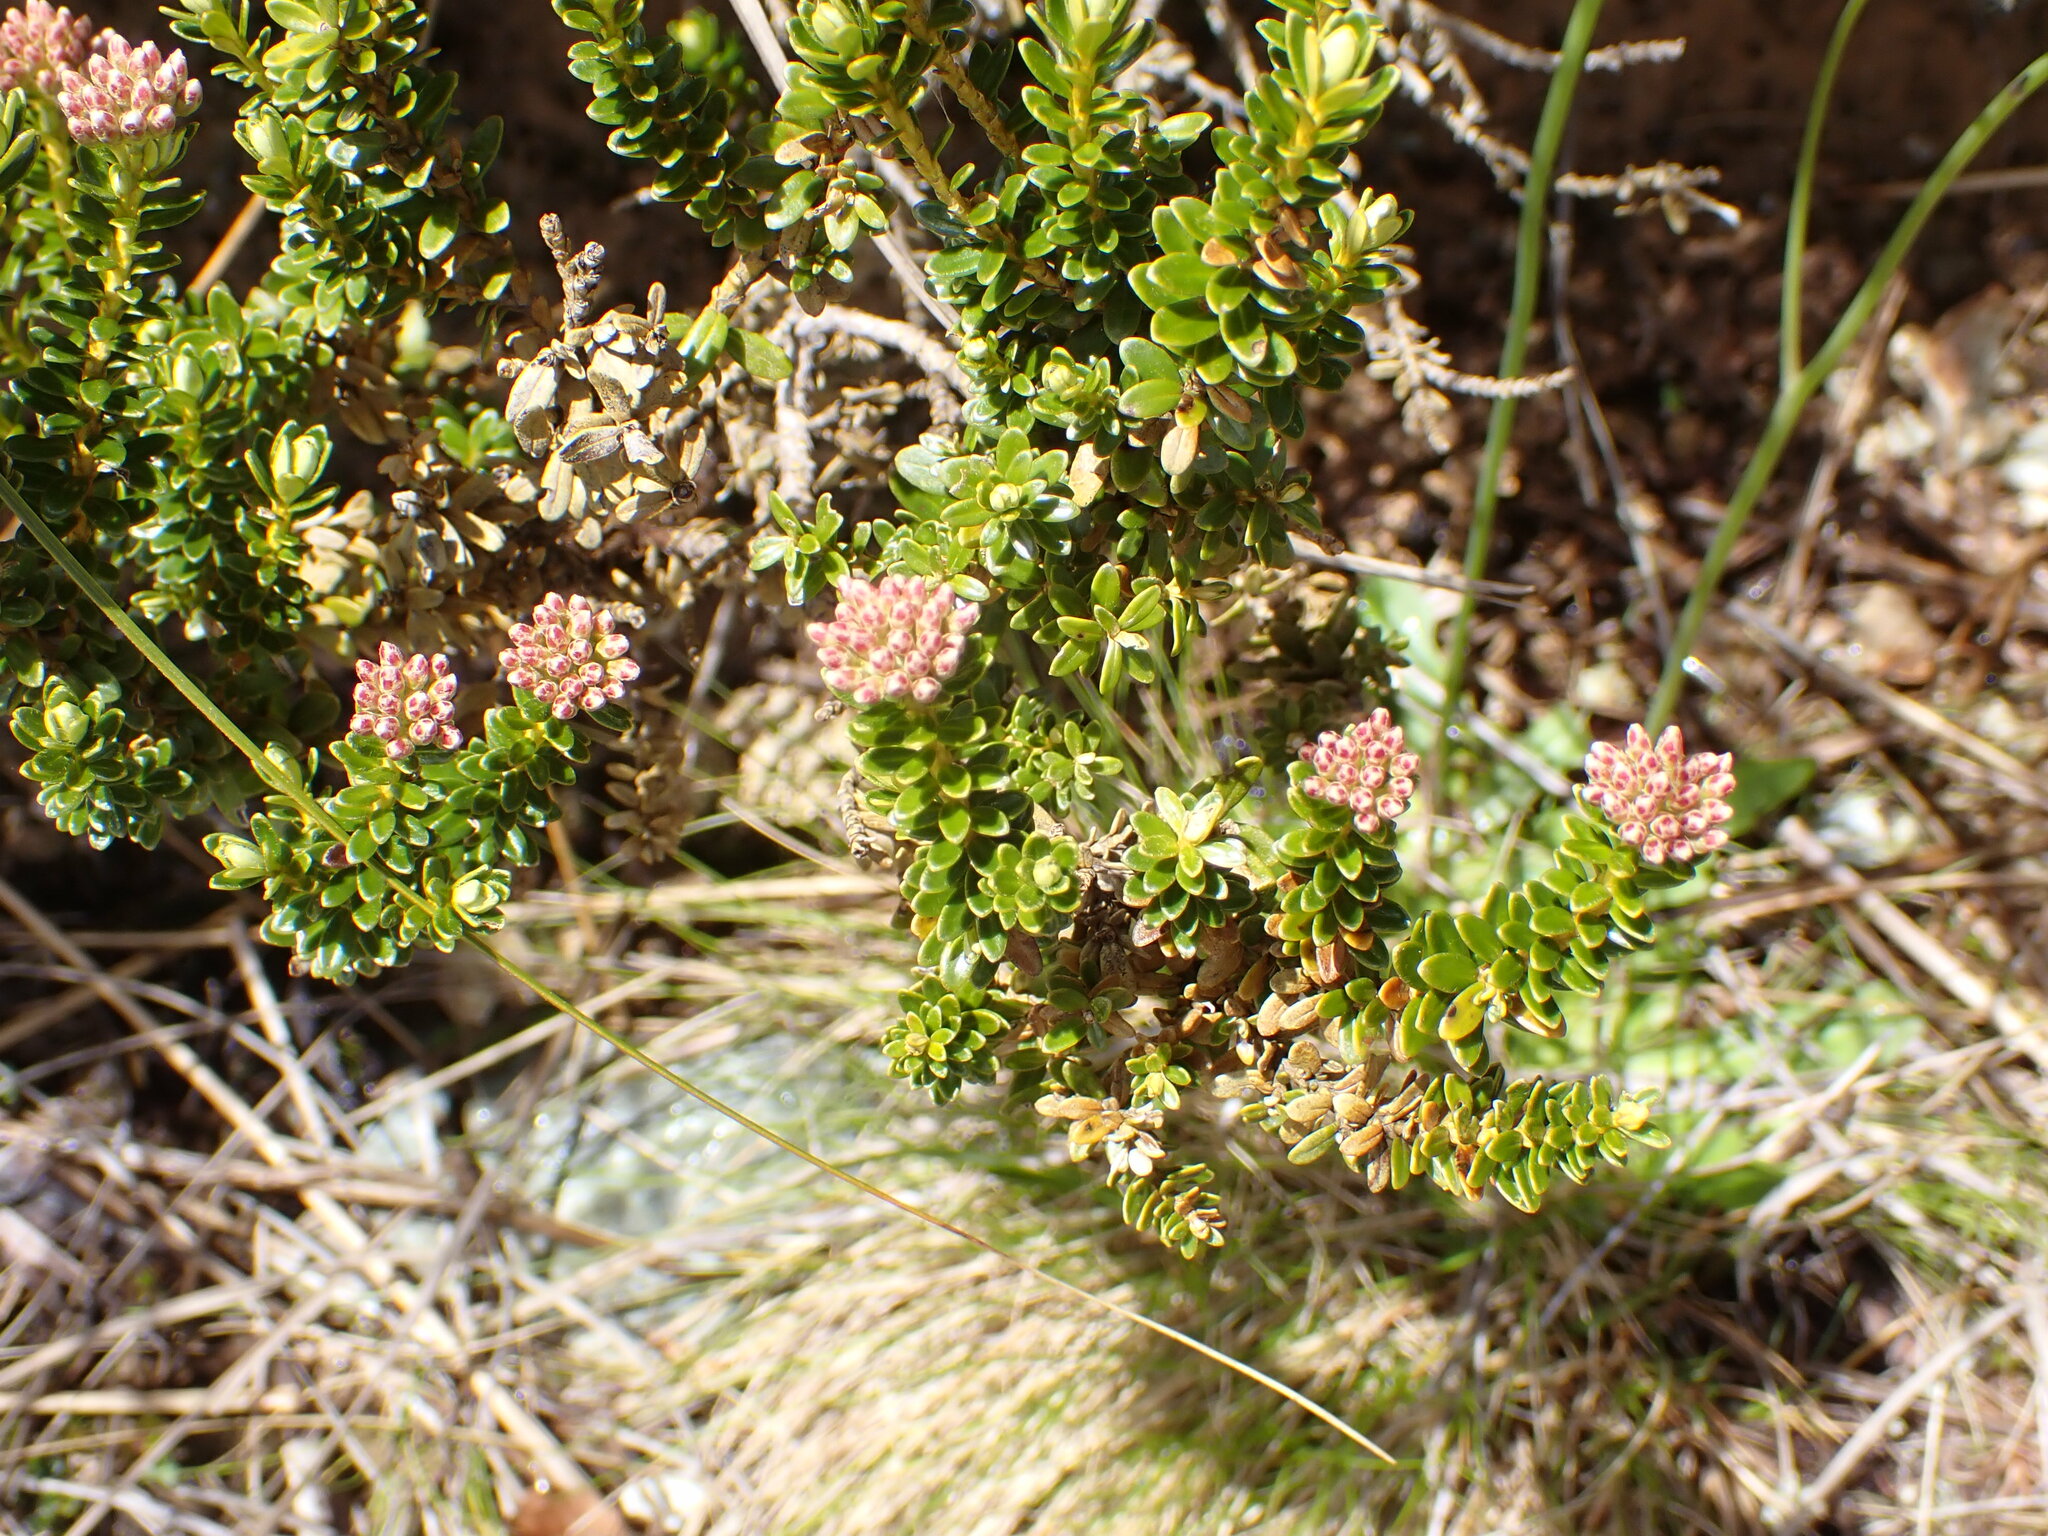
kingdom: Plantae
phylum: Tracheophyta
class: Magnoliopsida
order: Asterales
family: Asteraceae
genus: Ozothamnus
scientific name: Ozothamnus leptophyllus
